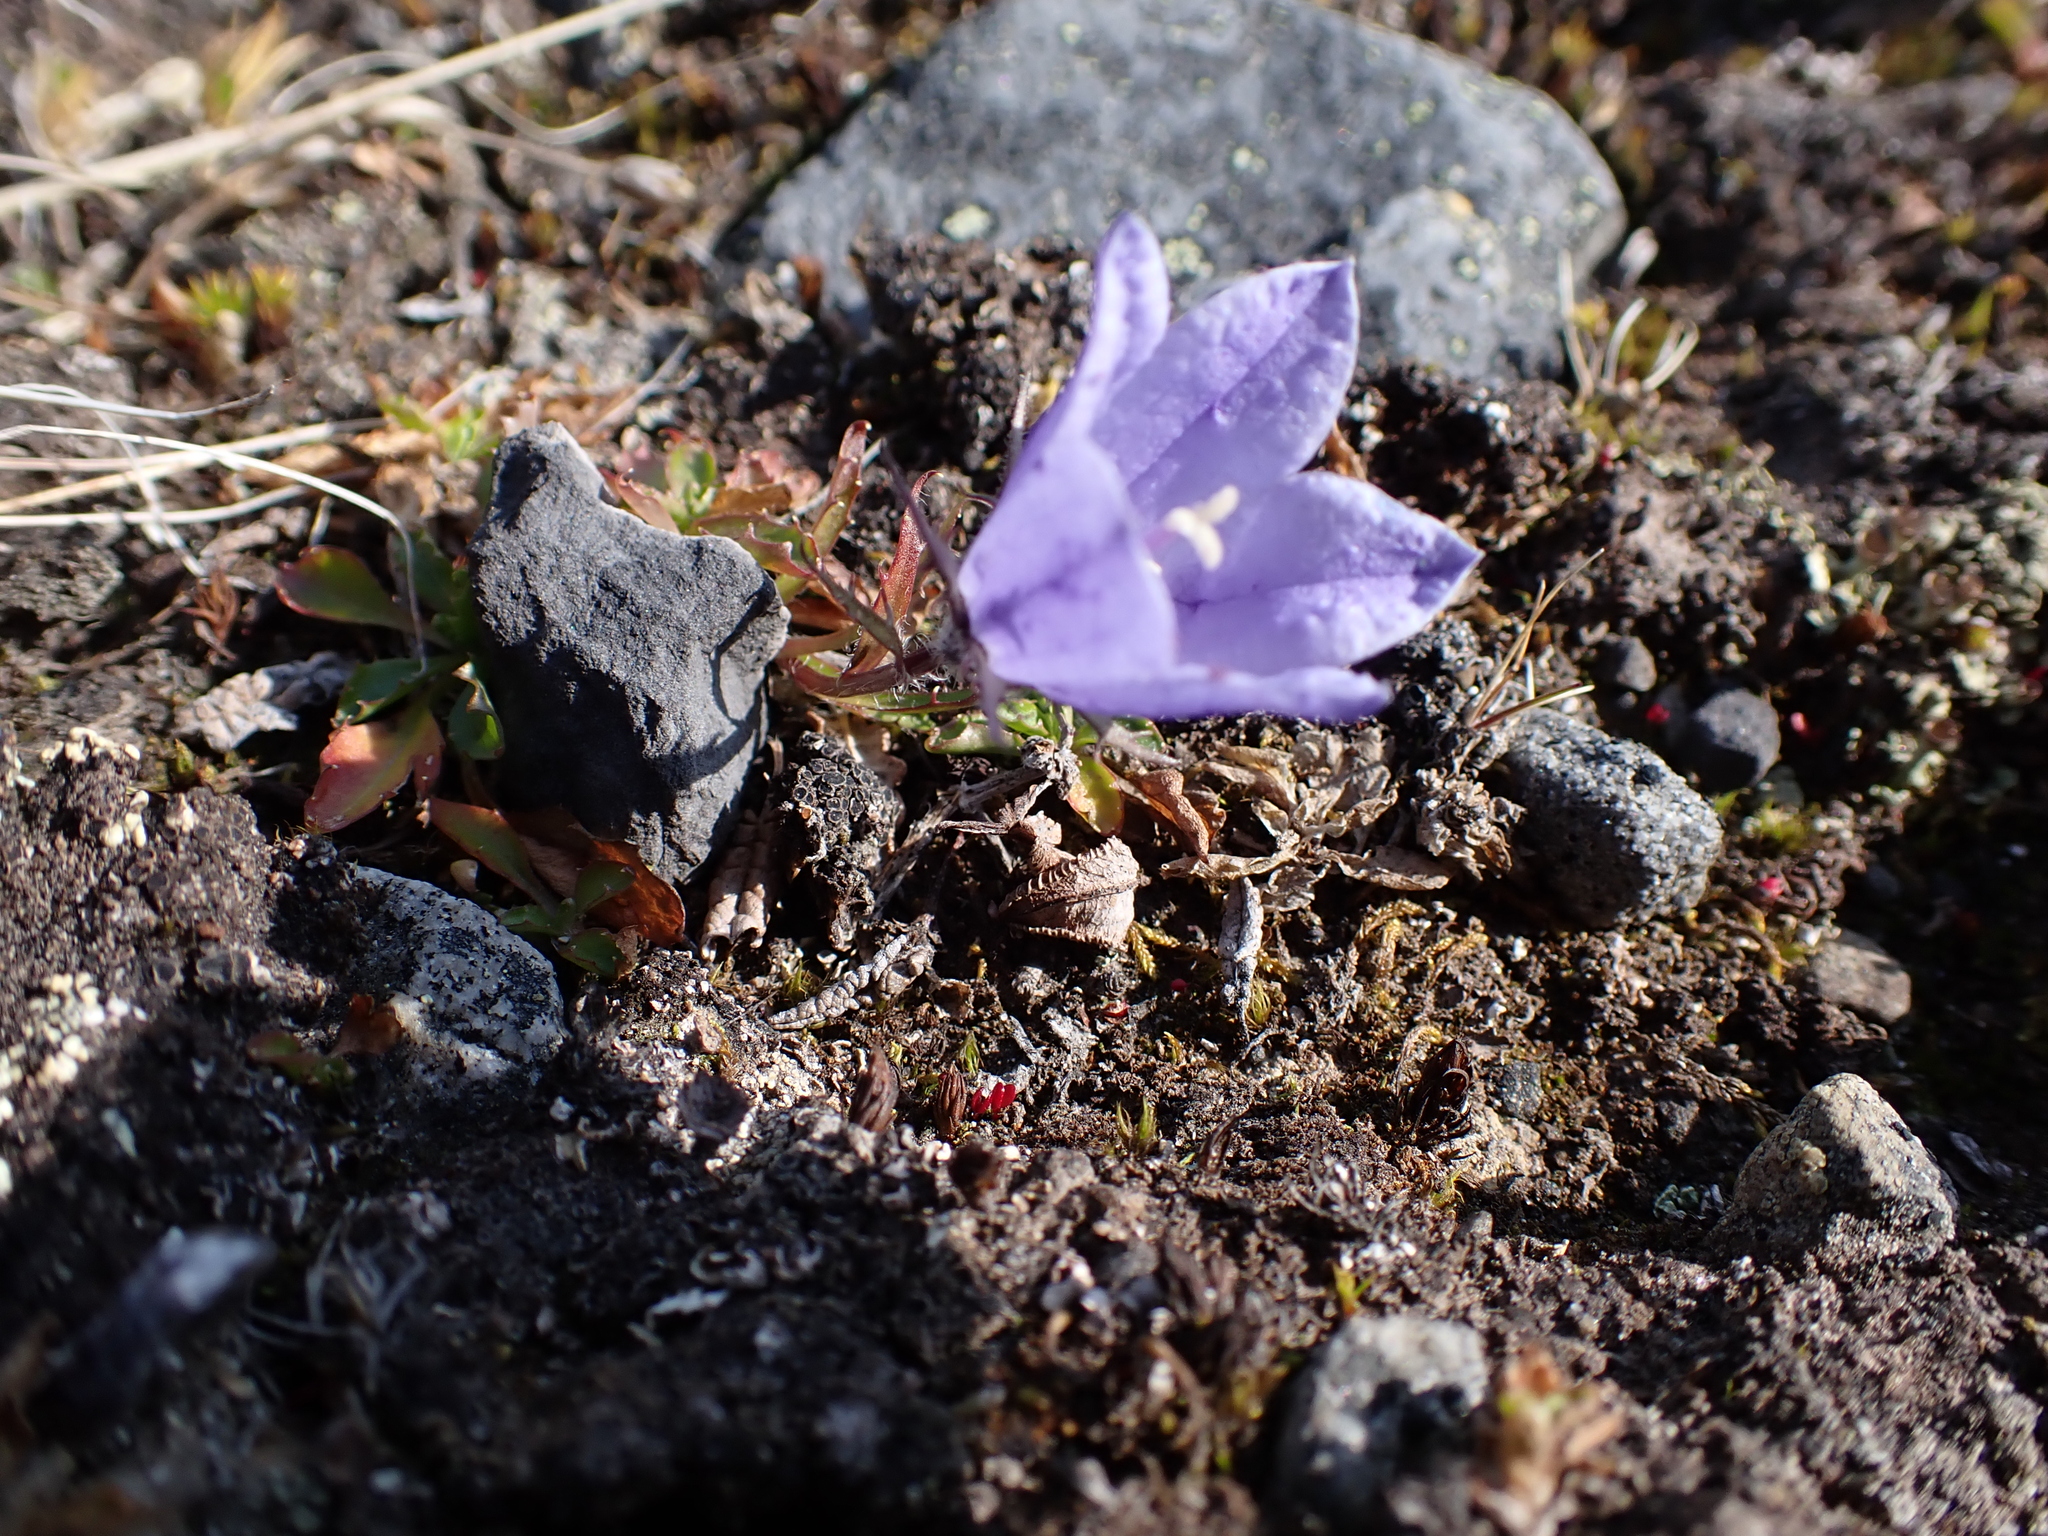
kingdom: Plantae
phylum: Tracheophyta
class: Magnoliopsida
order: Asterales
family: Campanulaceae
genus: Campanula
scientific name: Campanula lasiocarpa
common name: Mountain harebell
